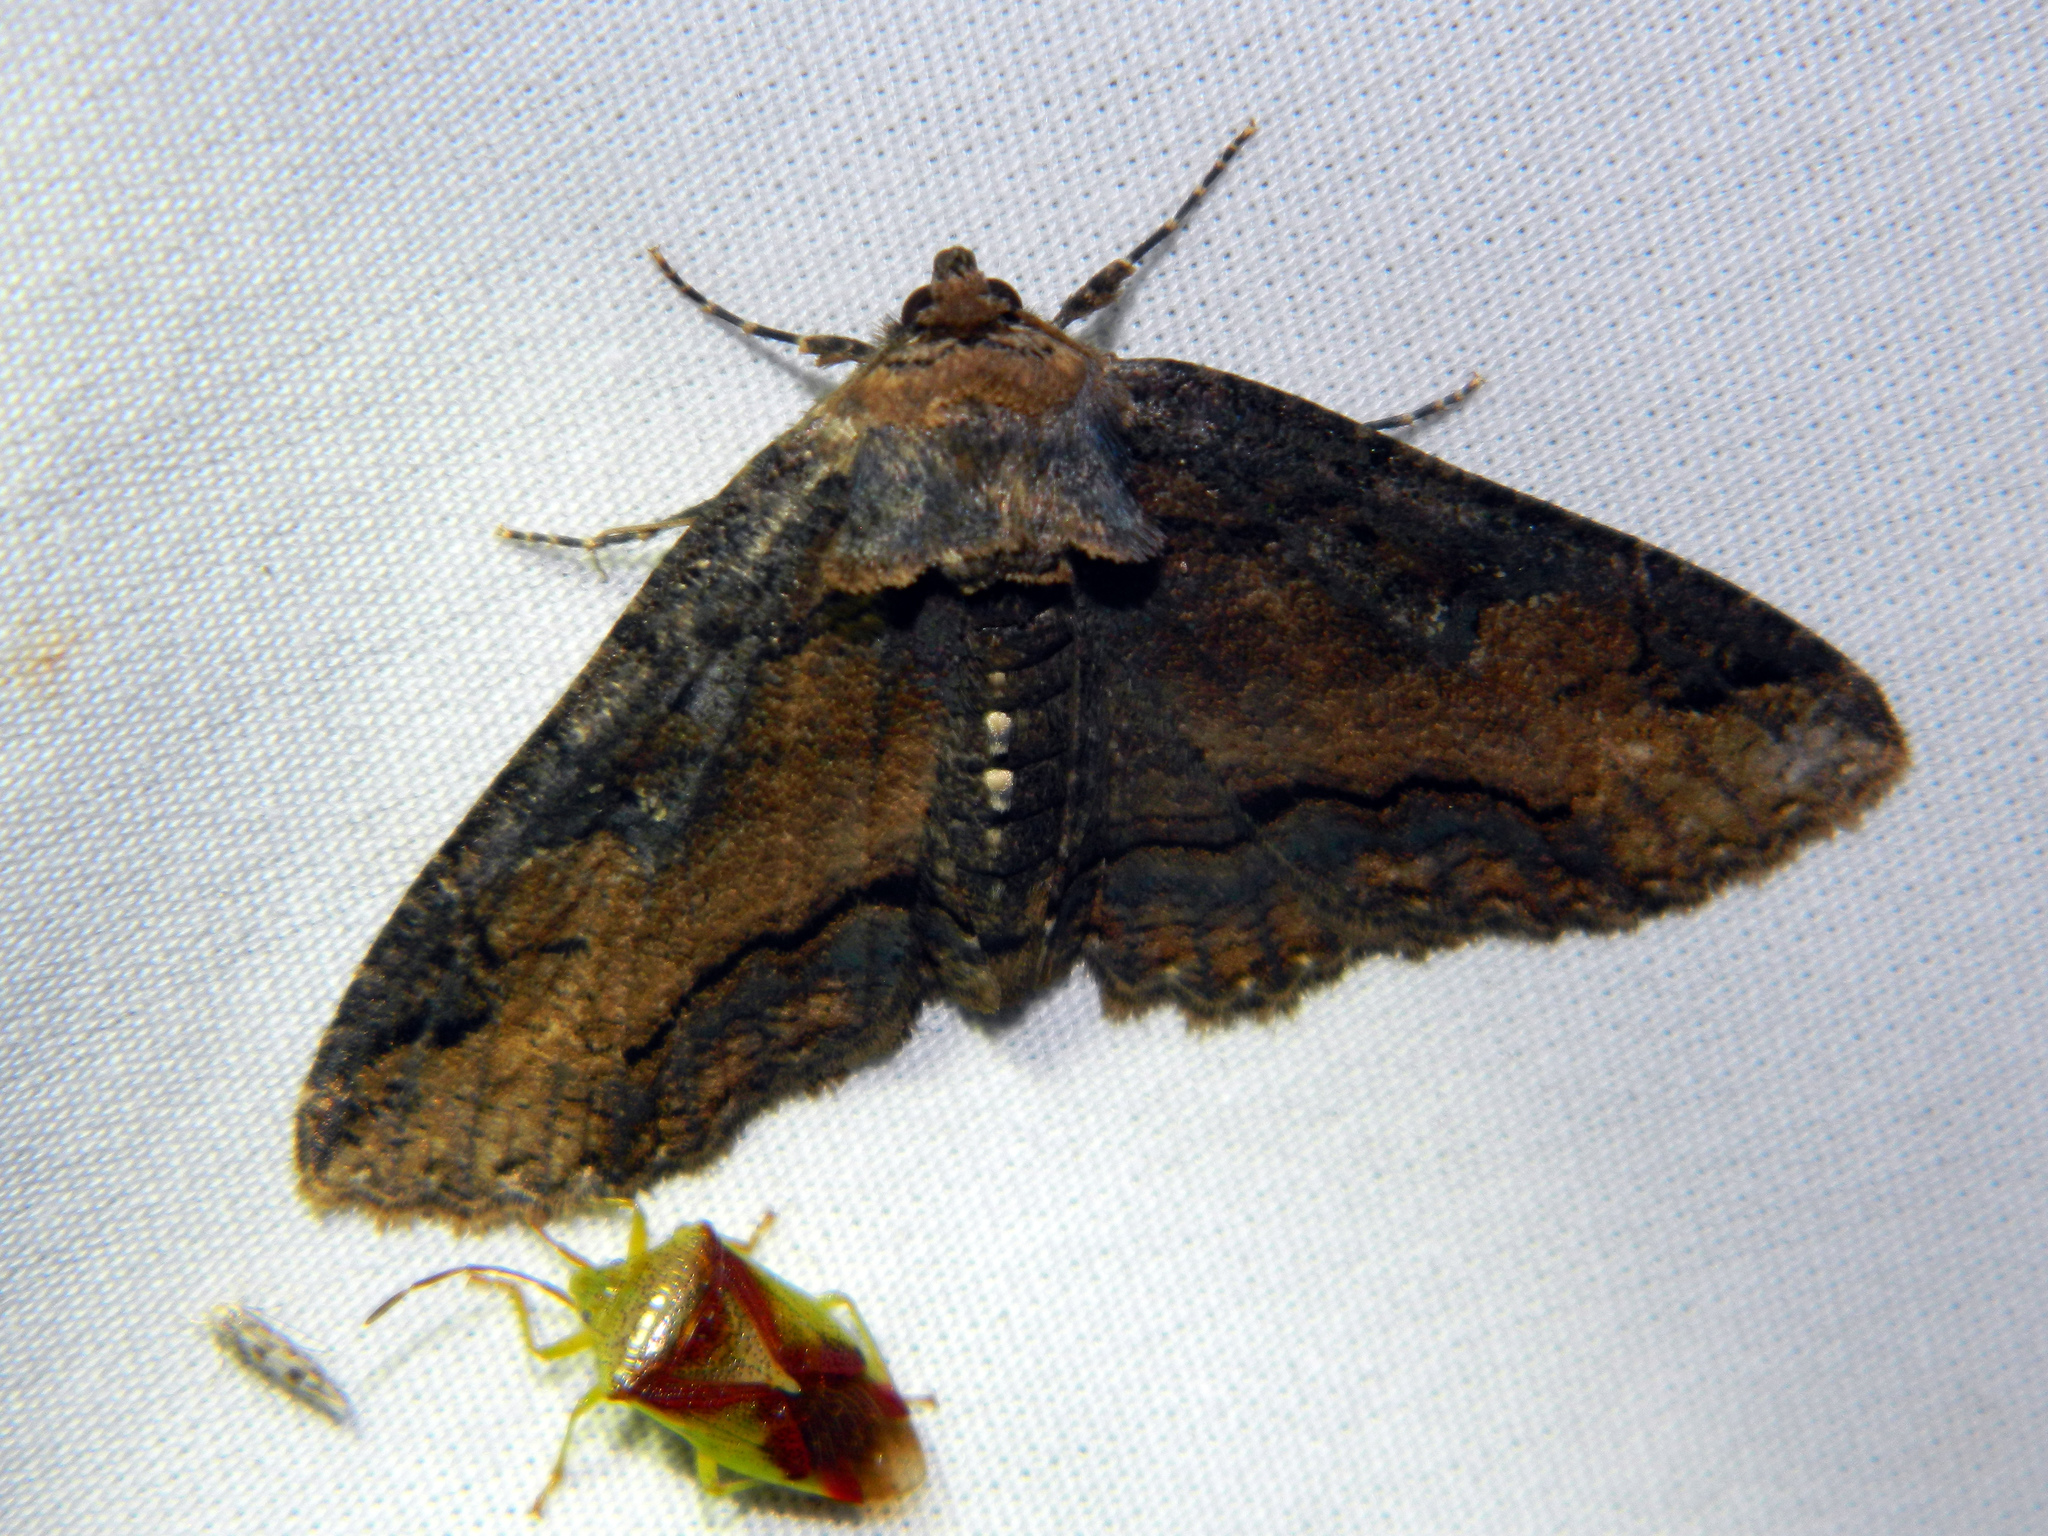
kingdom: Animalia
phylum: Arthropoda
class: Insecta
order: Lepidoptera
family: Erebidae
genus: Zale
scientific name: Zale minerea
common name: Colorful zale moth
